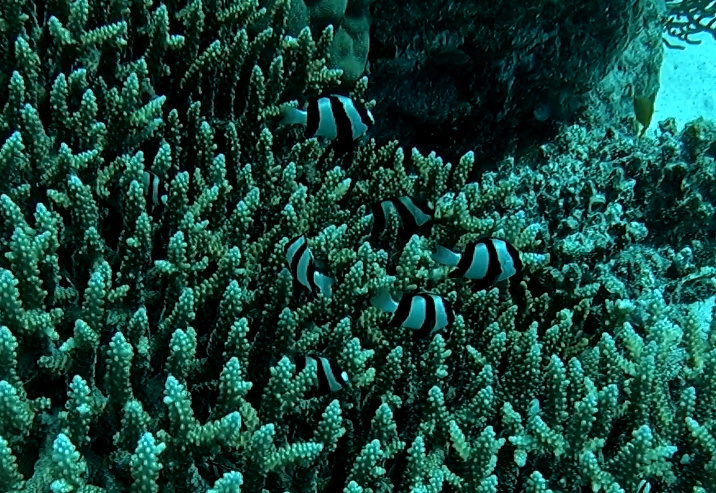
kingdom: Animalia
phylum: Chordata
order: Perciformes
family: Pomacentridae
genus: Dascyllus
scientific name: Dascyllus aruanus
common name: Humbug dascyllus
